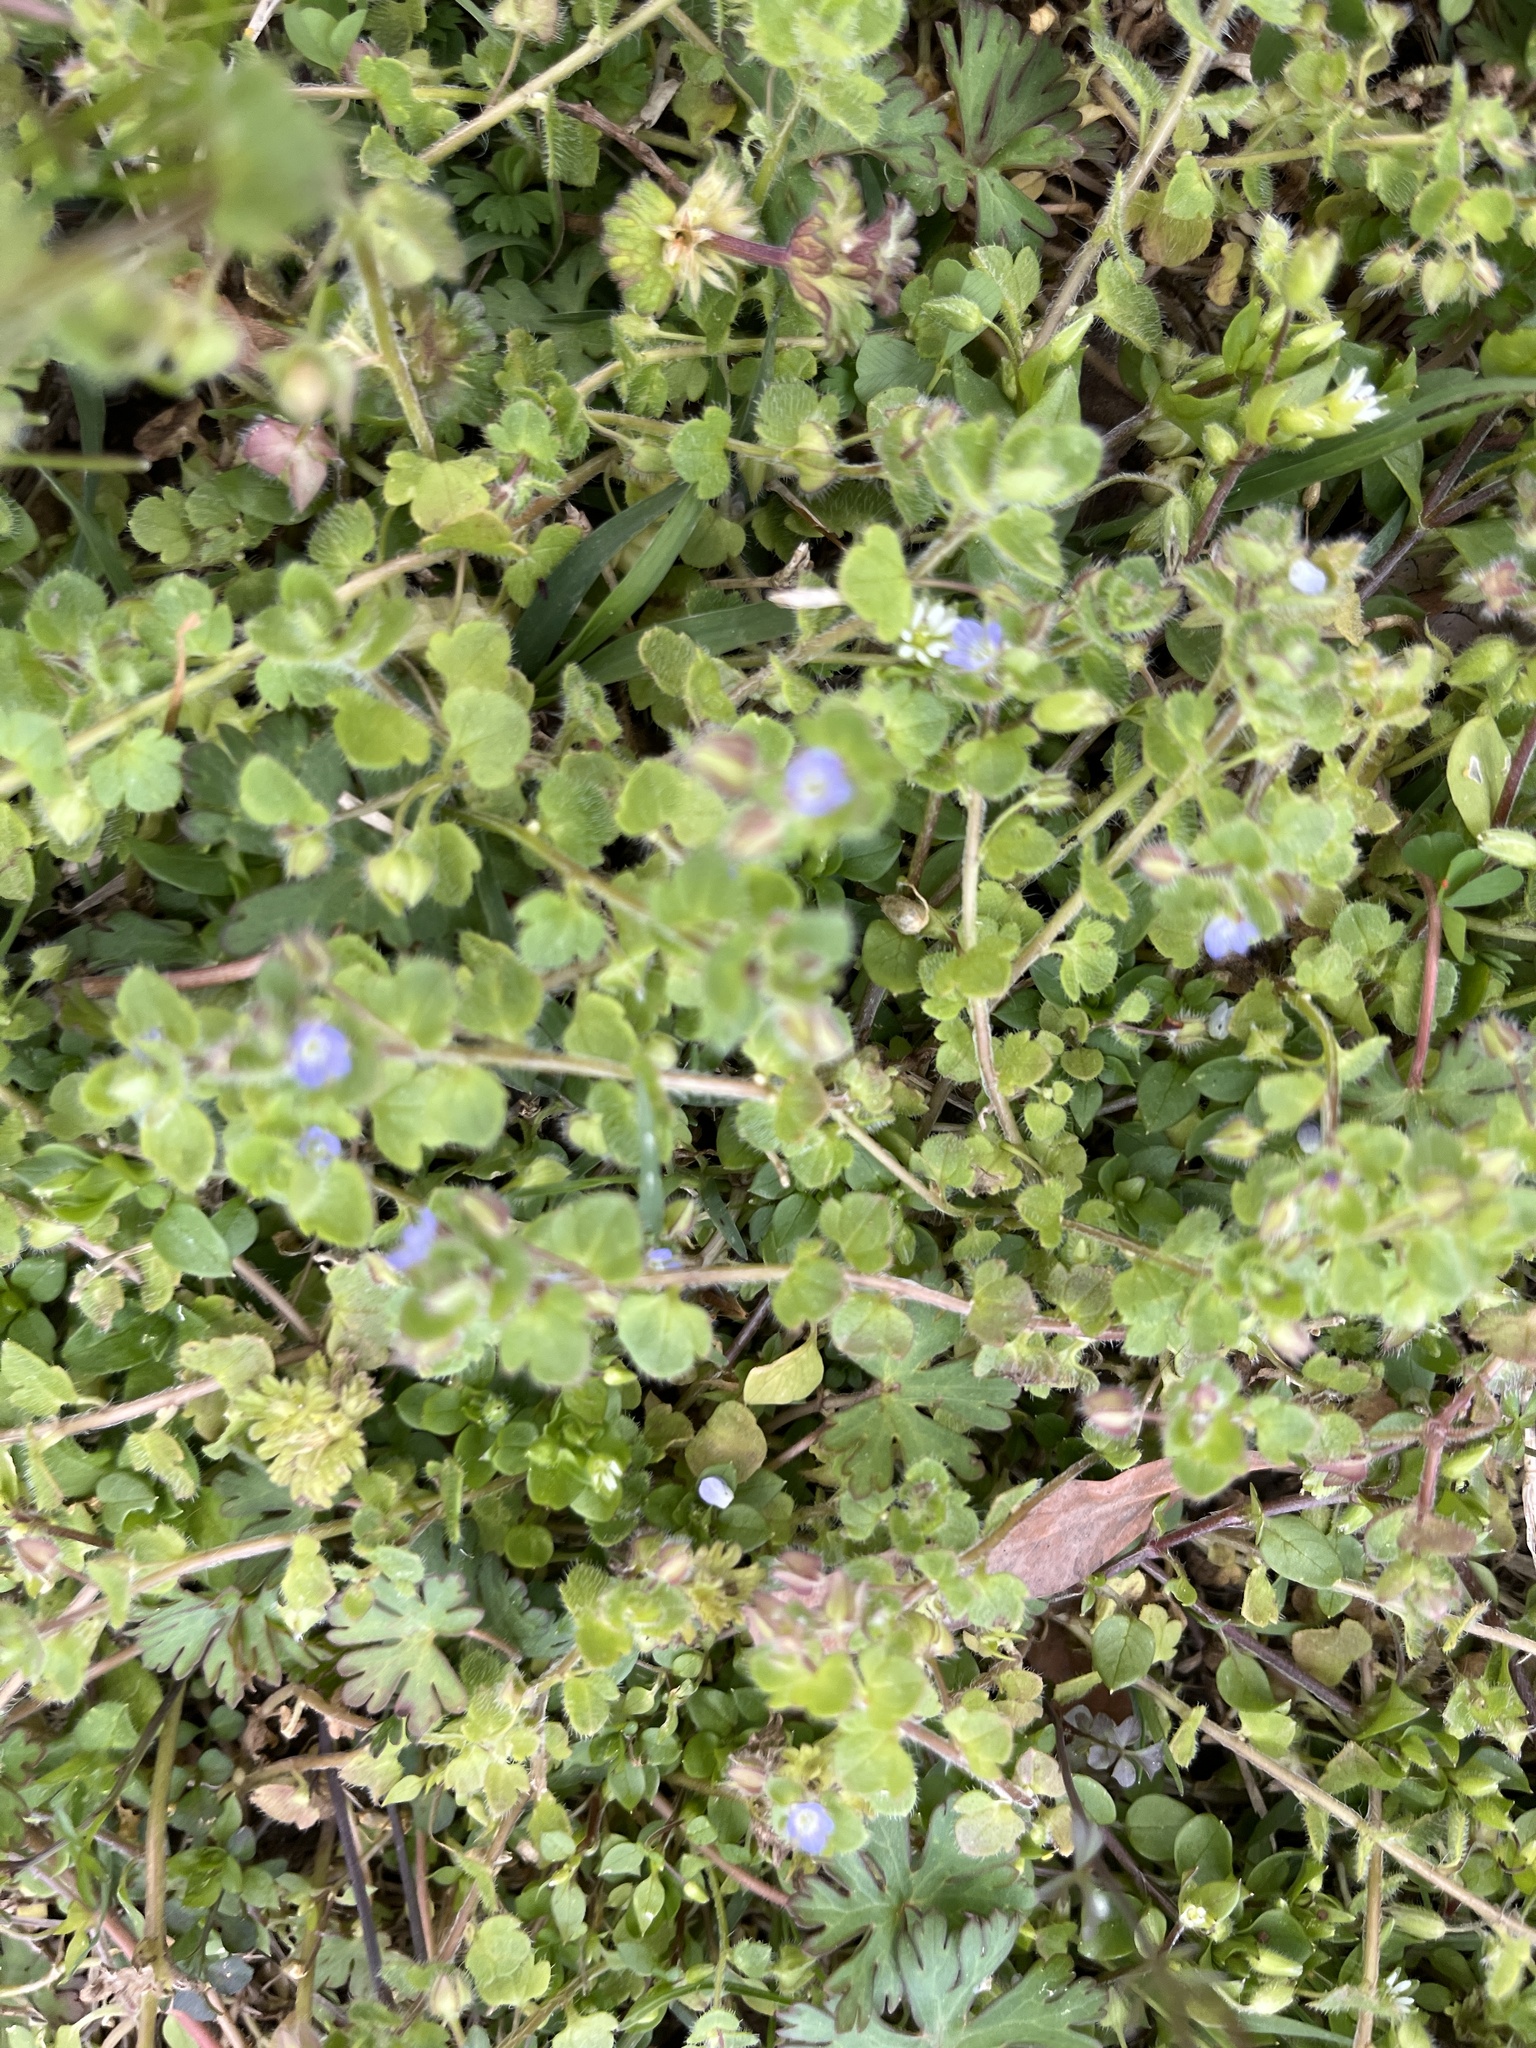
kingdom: Plantae
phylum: Tracheophyta
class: Magnoliopsida
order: Lamiales
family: Plantaginaceae
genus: Veronica
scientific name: Veronica hederifolia
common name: Ivy-leaved speedwell
